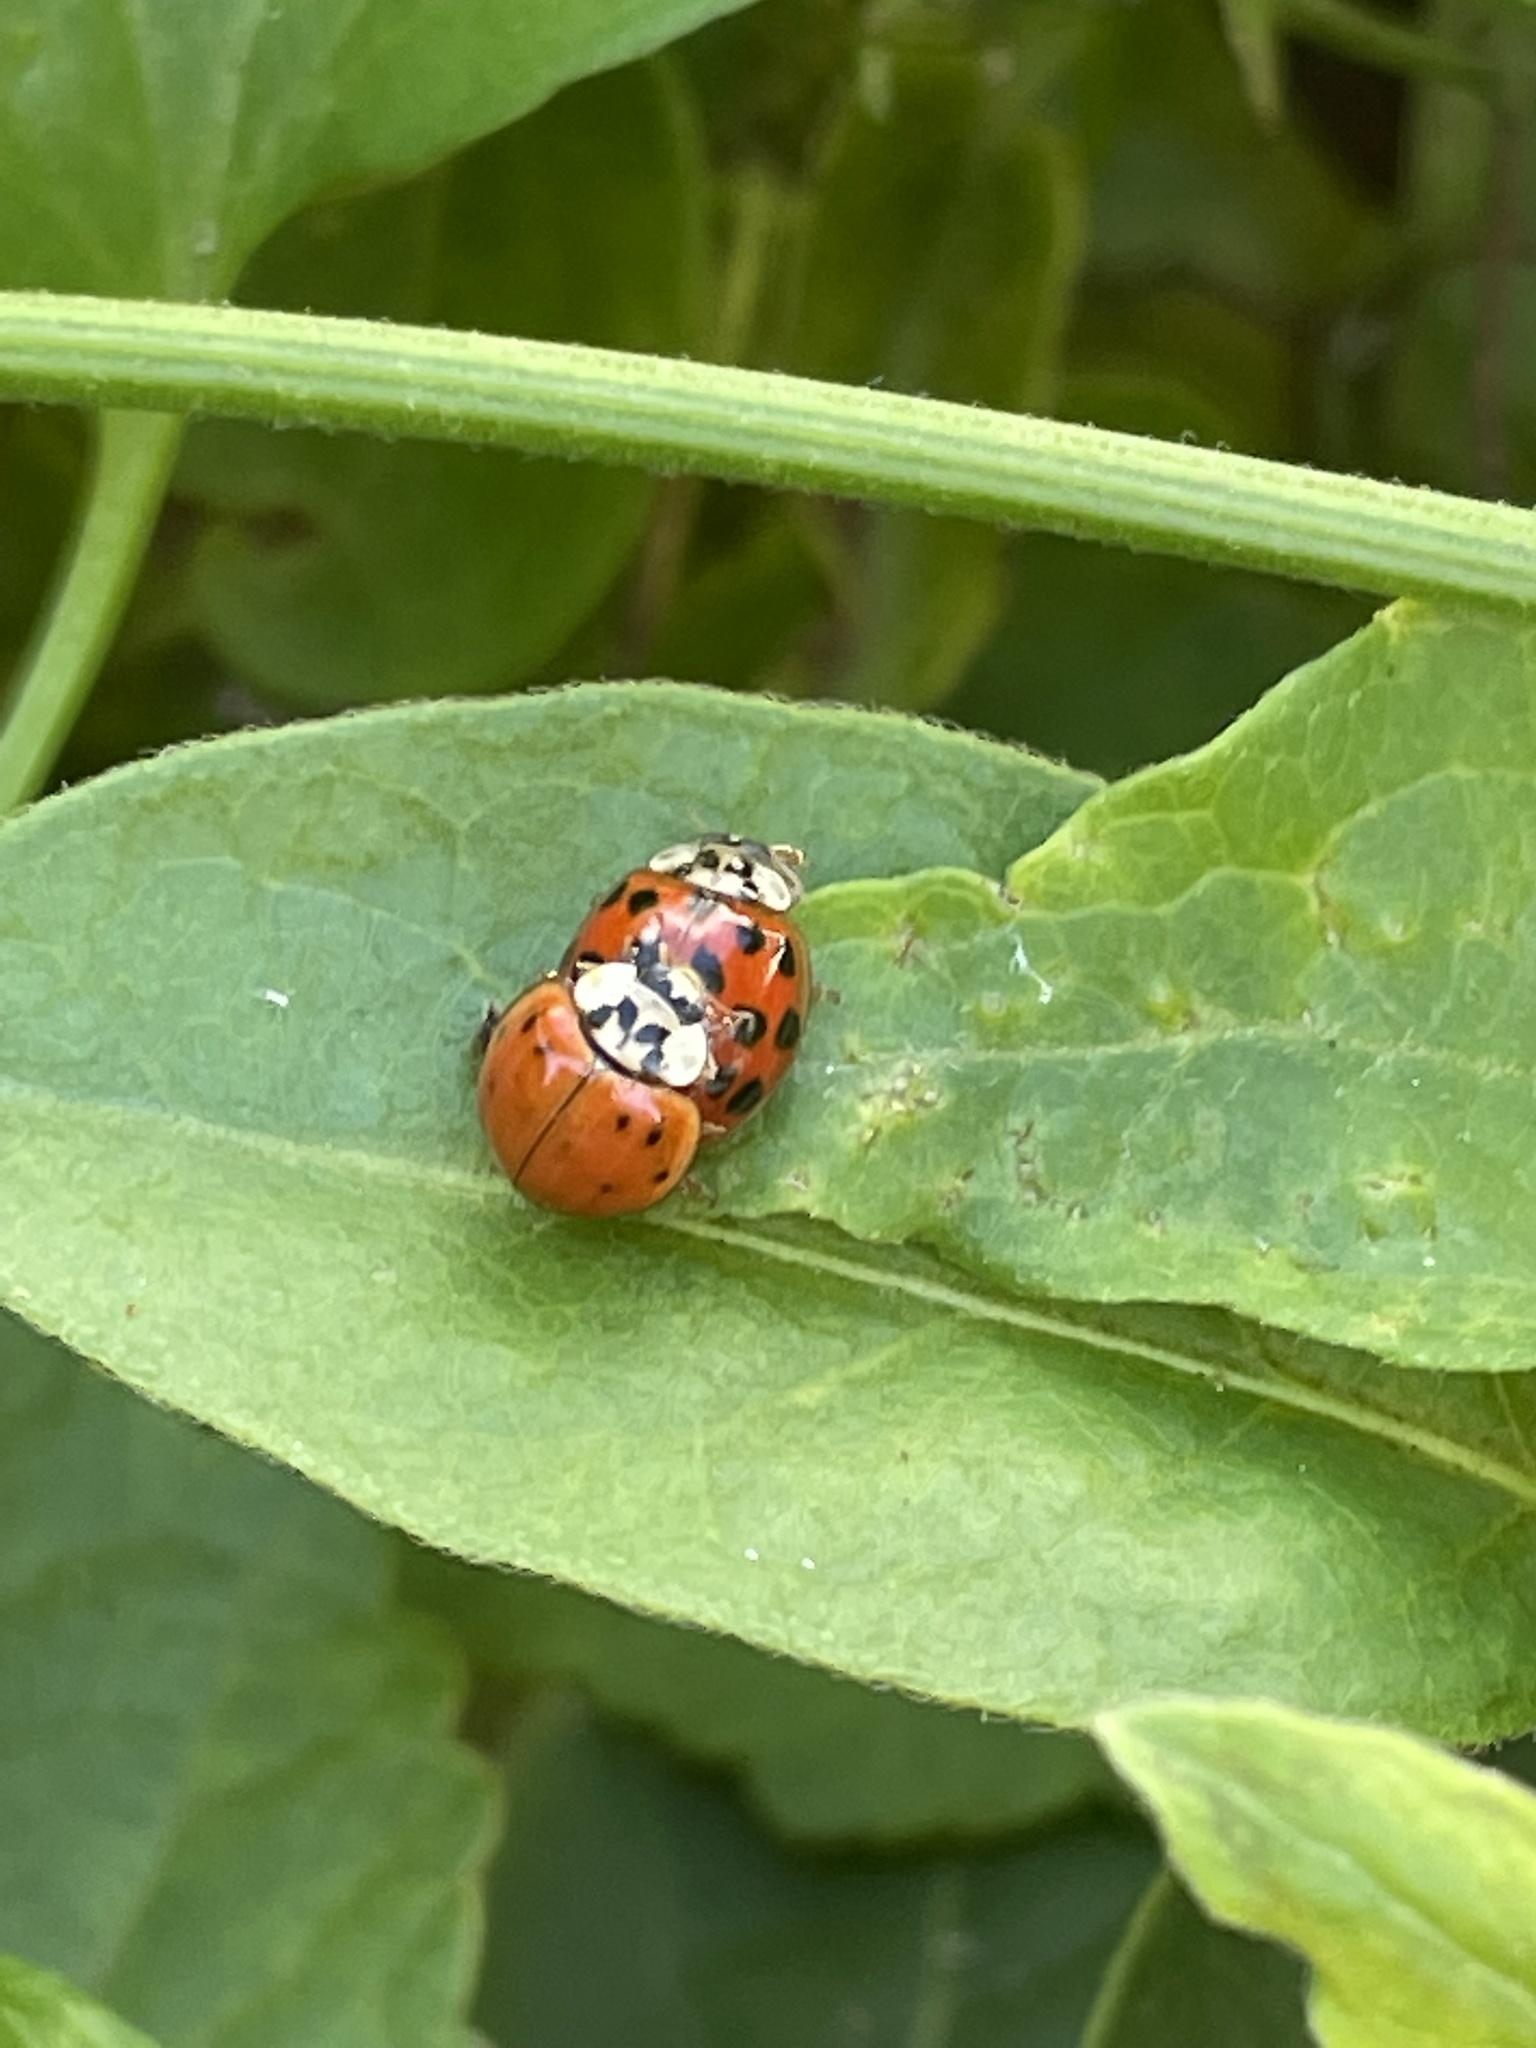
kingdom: Animalia
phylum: Arthropoda
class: Insecta
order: Coleoptera
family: Coccinellidae
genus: Harmonia
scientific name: Harmonia axyridis
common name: Harlequin ladybird
